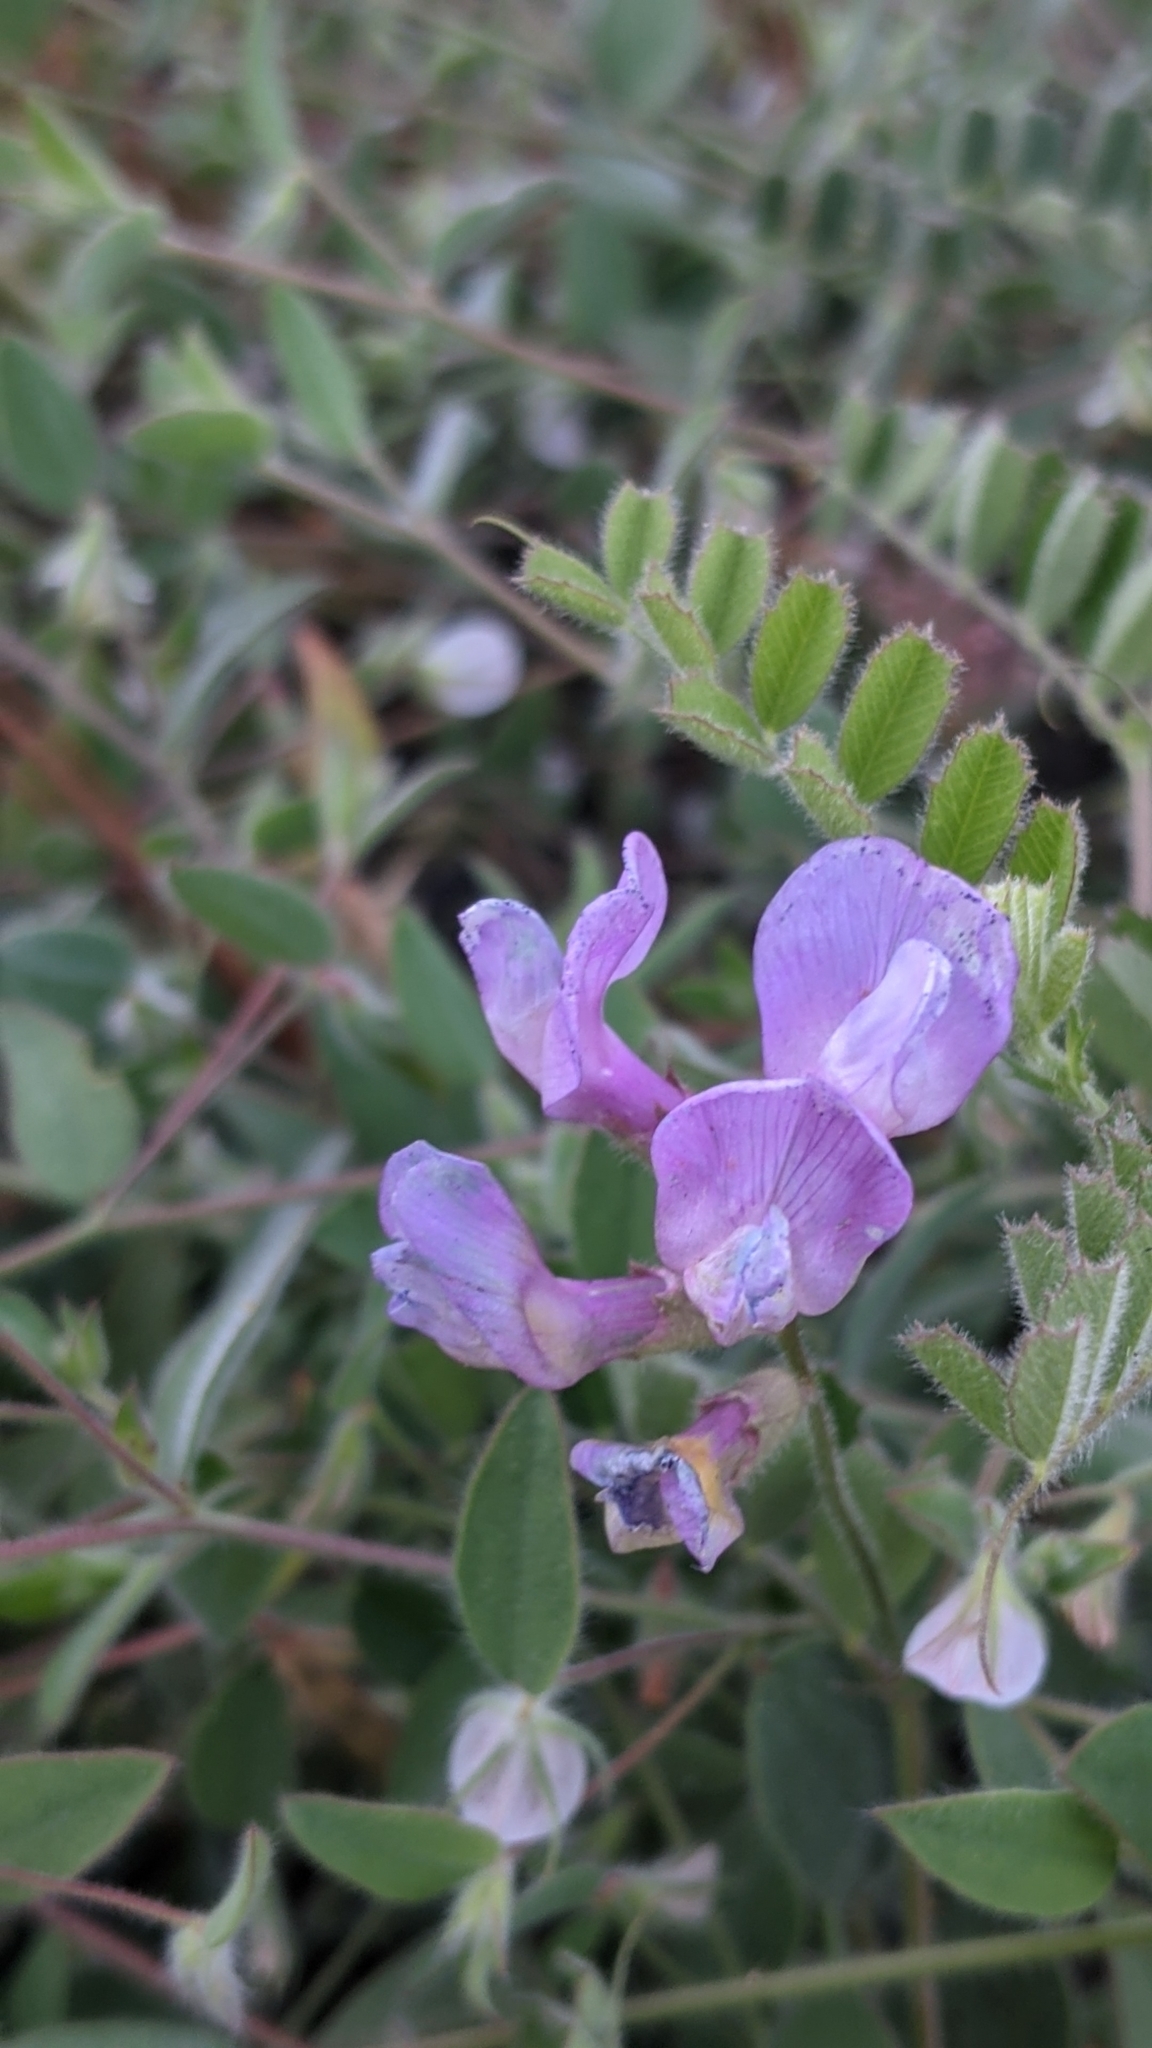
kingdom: Plantae
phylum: Tracheophyta
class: Magnoliopsida
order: Fabales
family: Fabaceae
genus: Vicia
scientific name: Vicia americana
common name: American vetch
